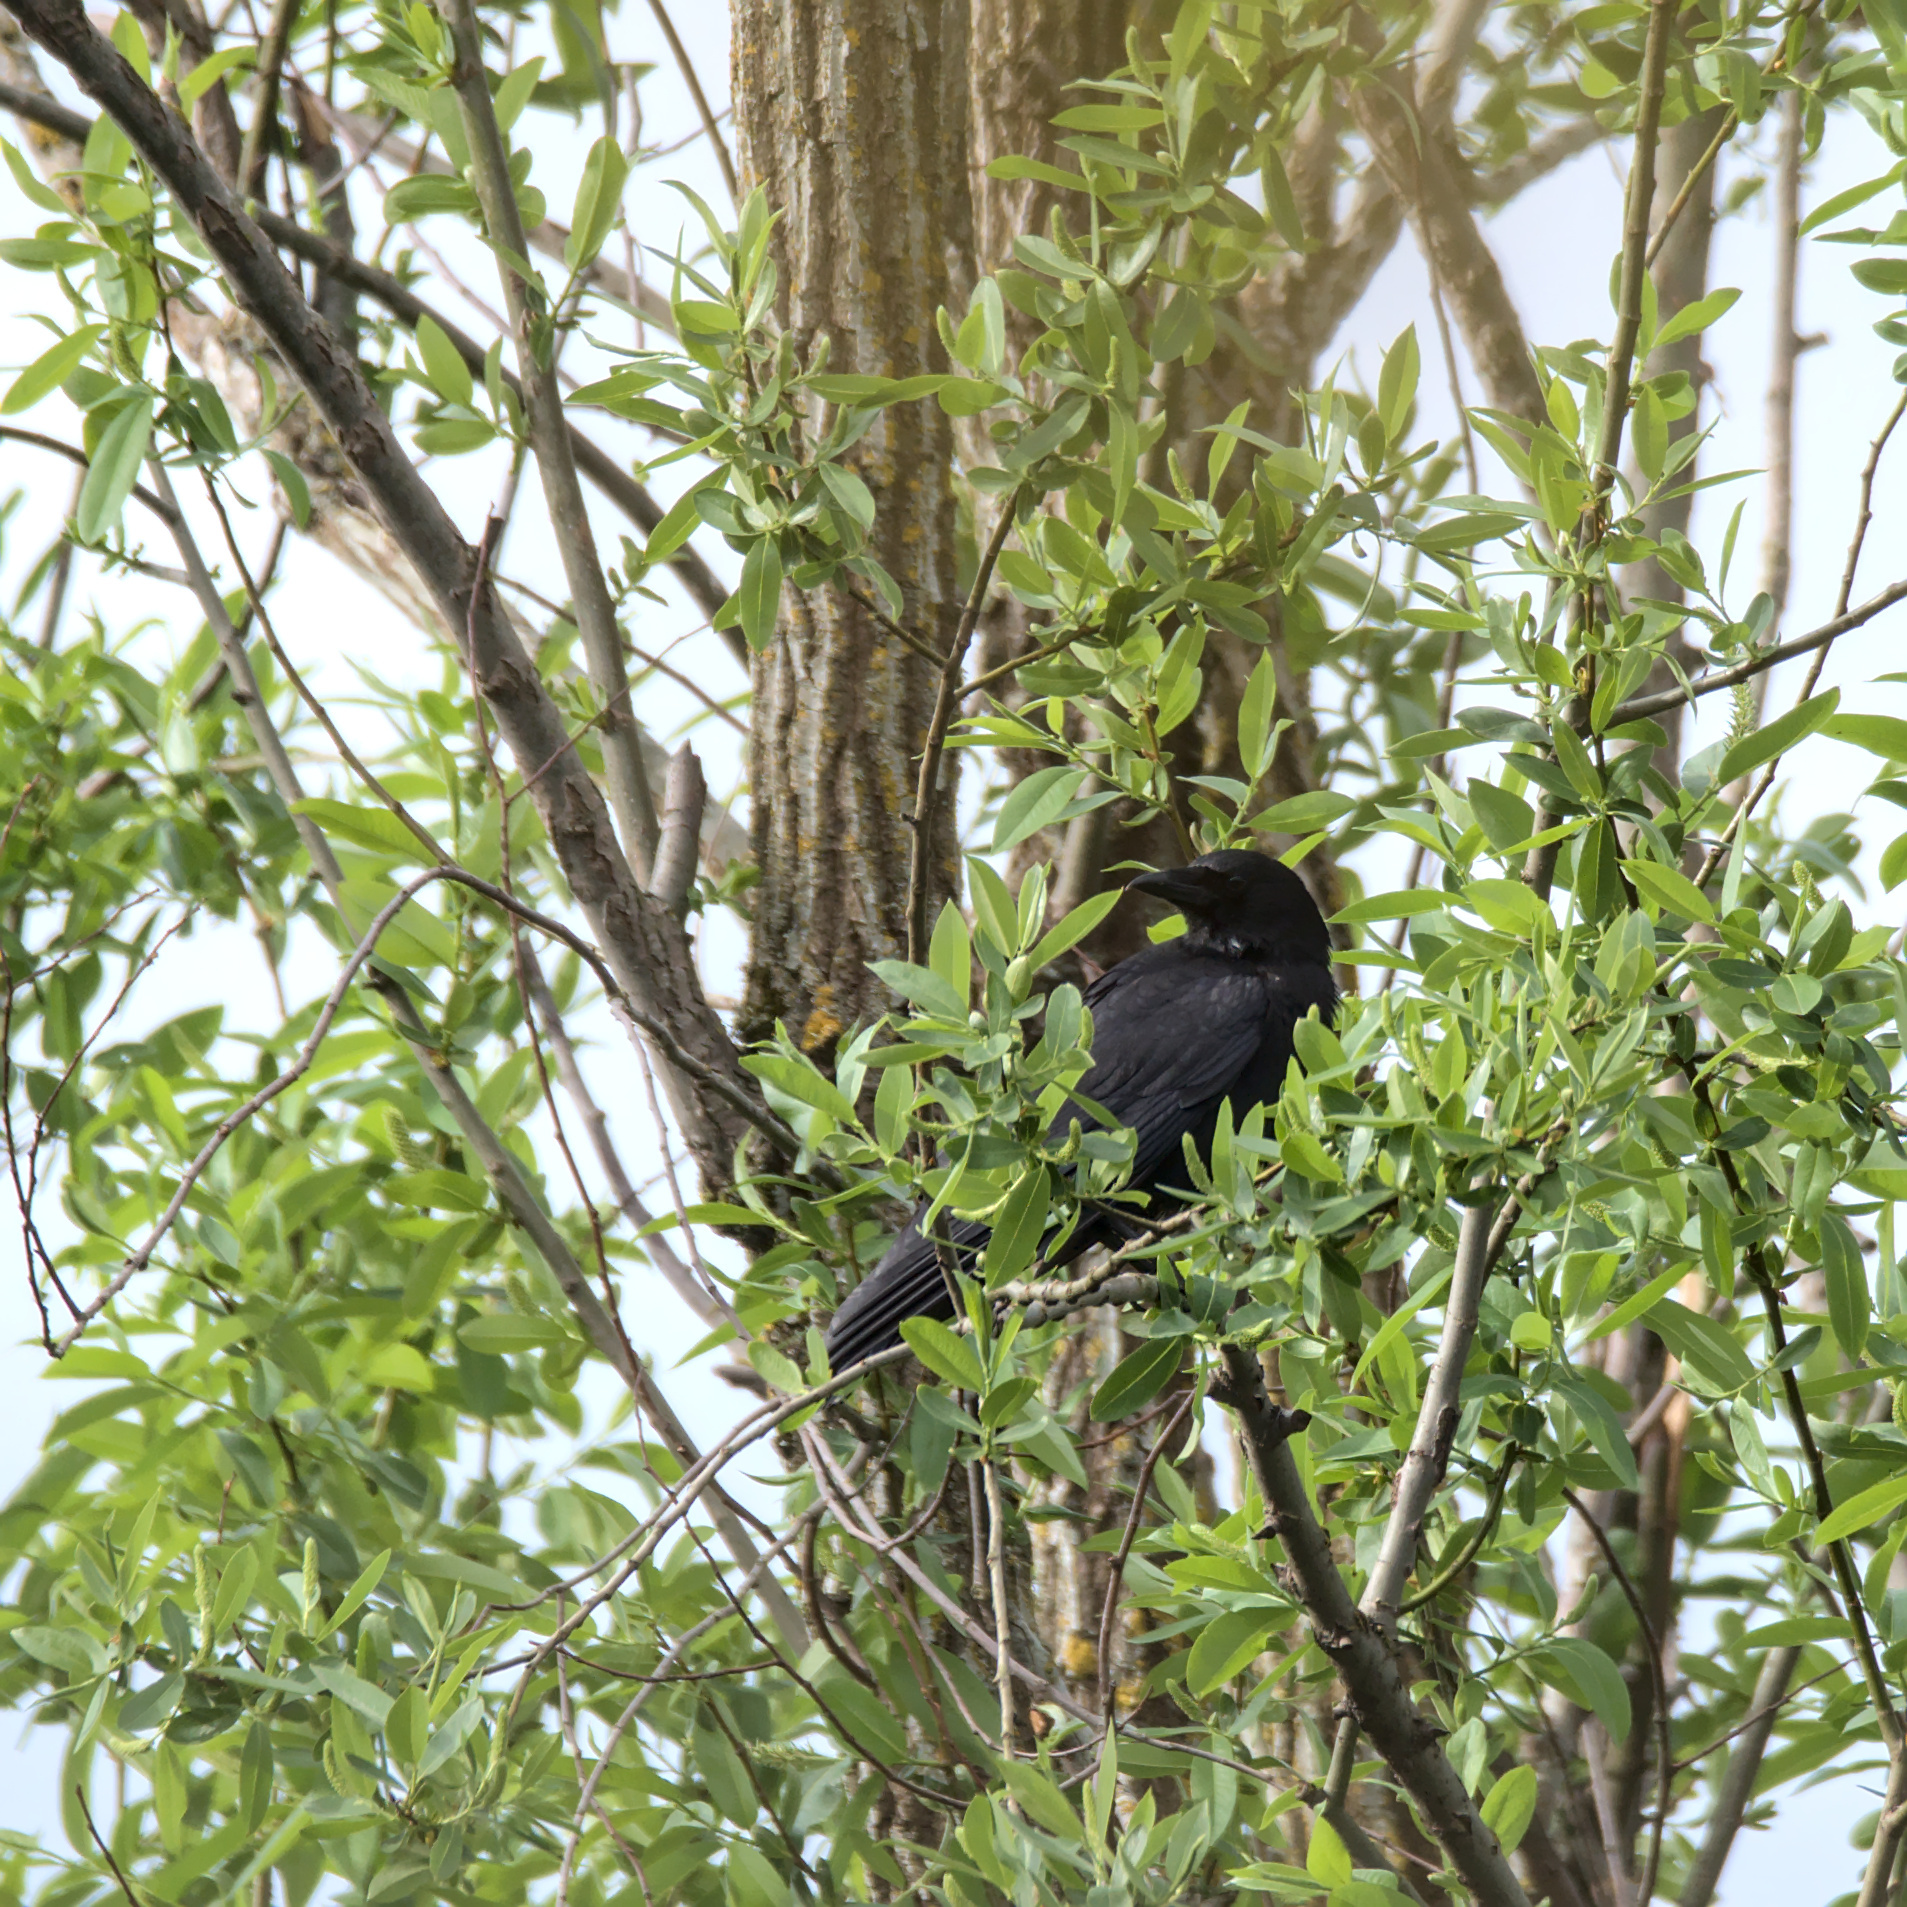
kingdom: Animalia
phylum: Chordata
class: Aves
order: Passeriformes
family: Corvidae
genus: Corvus
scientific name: Corvus brachyrhynchos
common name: American crow
